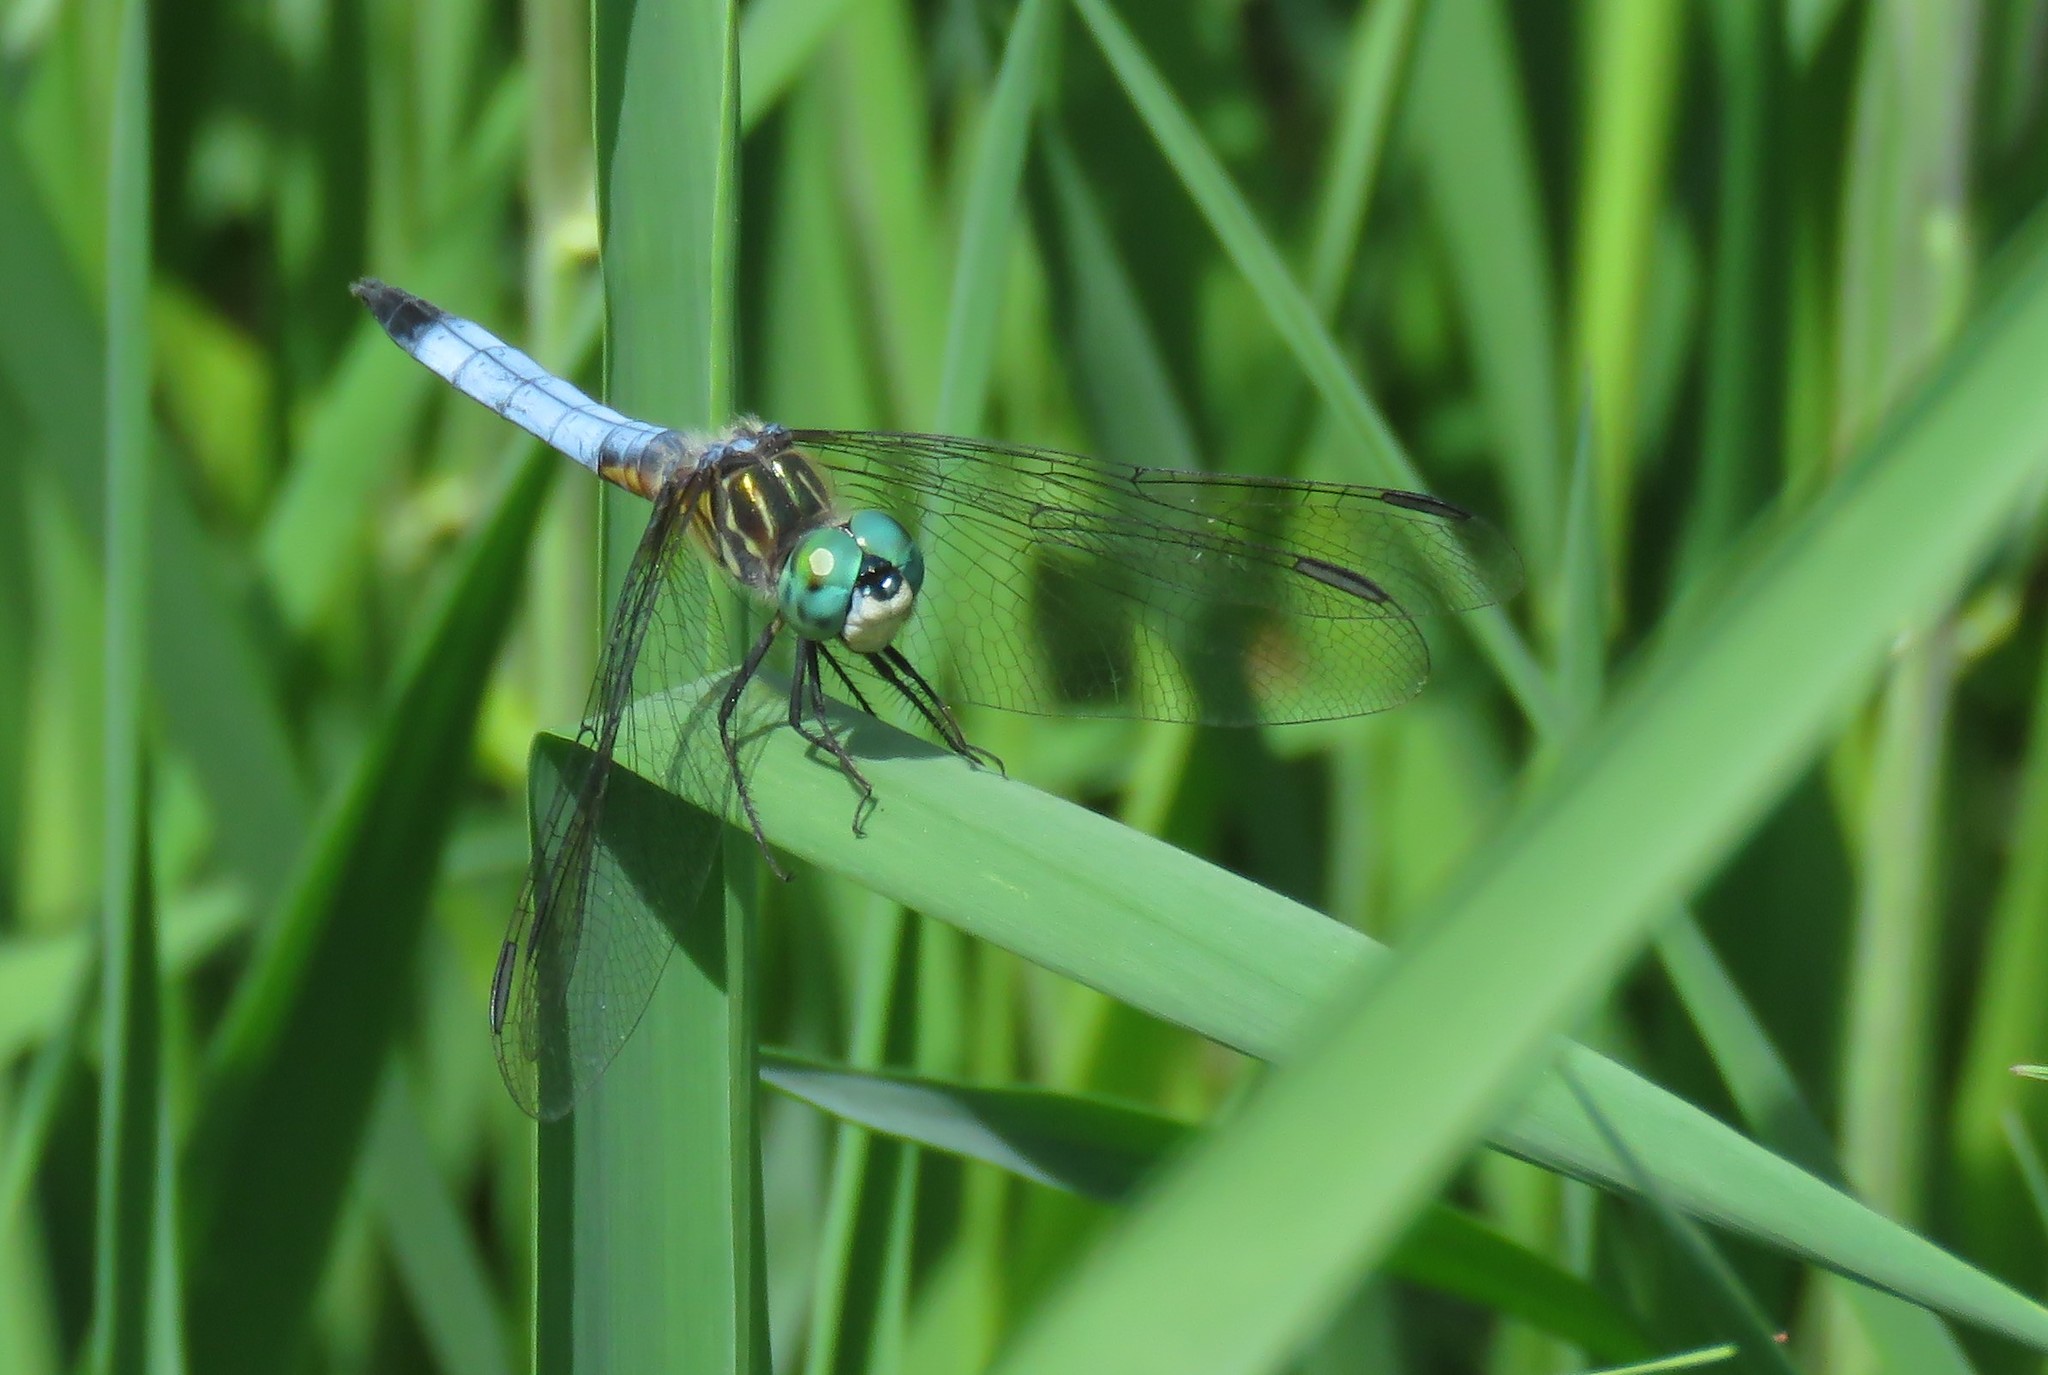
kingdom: Animalia
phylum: Arthropoda
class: Insecta
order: Odonata
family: Libellulidae
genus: Pachydiplax
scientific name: Pachydiplax longipennis
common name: Blue dasher
